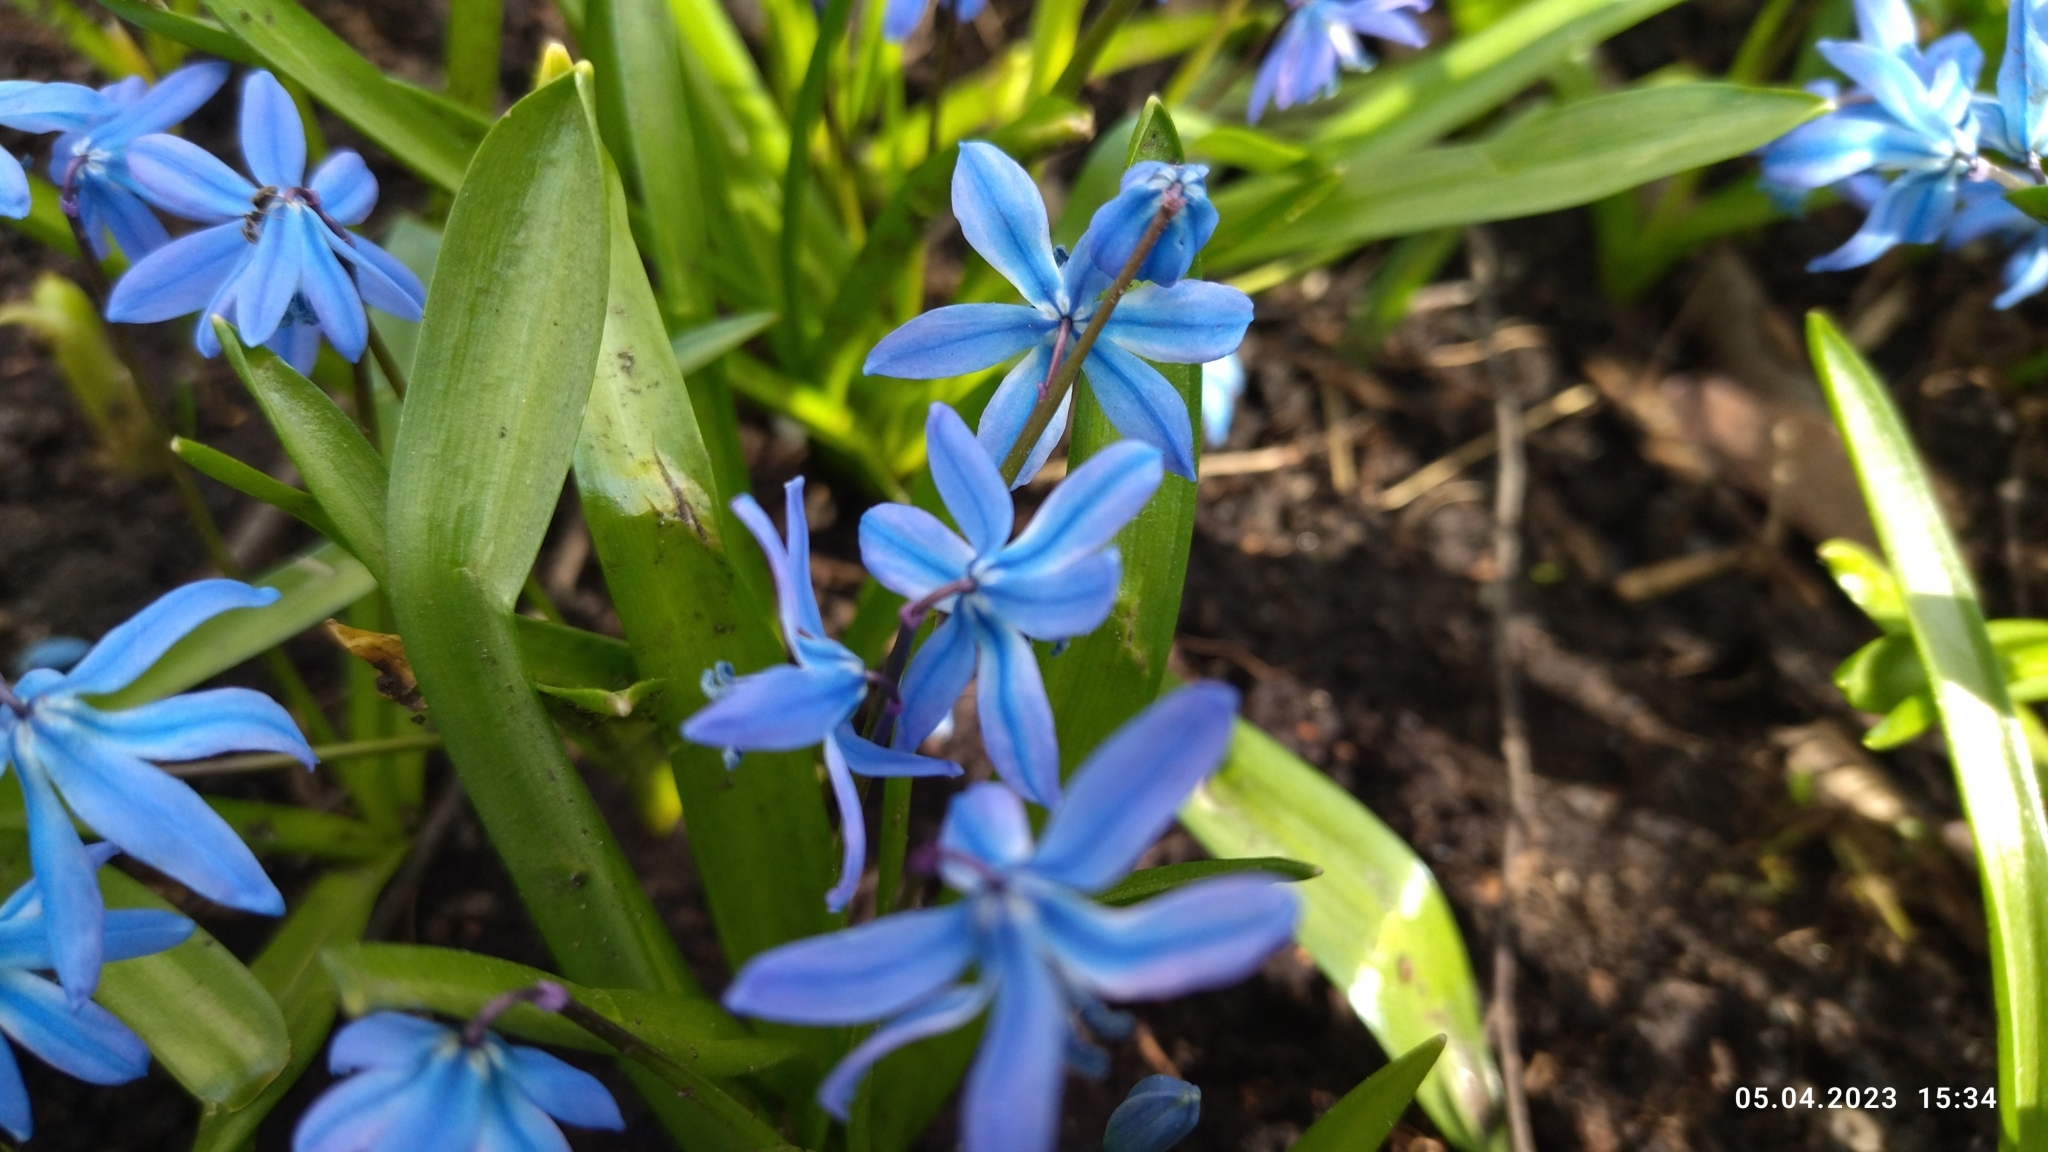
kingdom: Plantae
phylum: Tracheophyta
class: Liliopsida
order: Asparagales
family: Asparagaceae
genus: Scilla
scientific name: Scilla siberica
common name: Siberian squill
